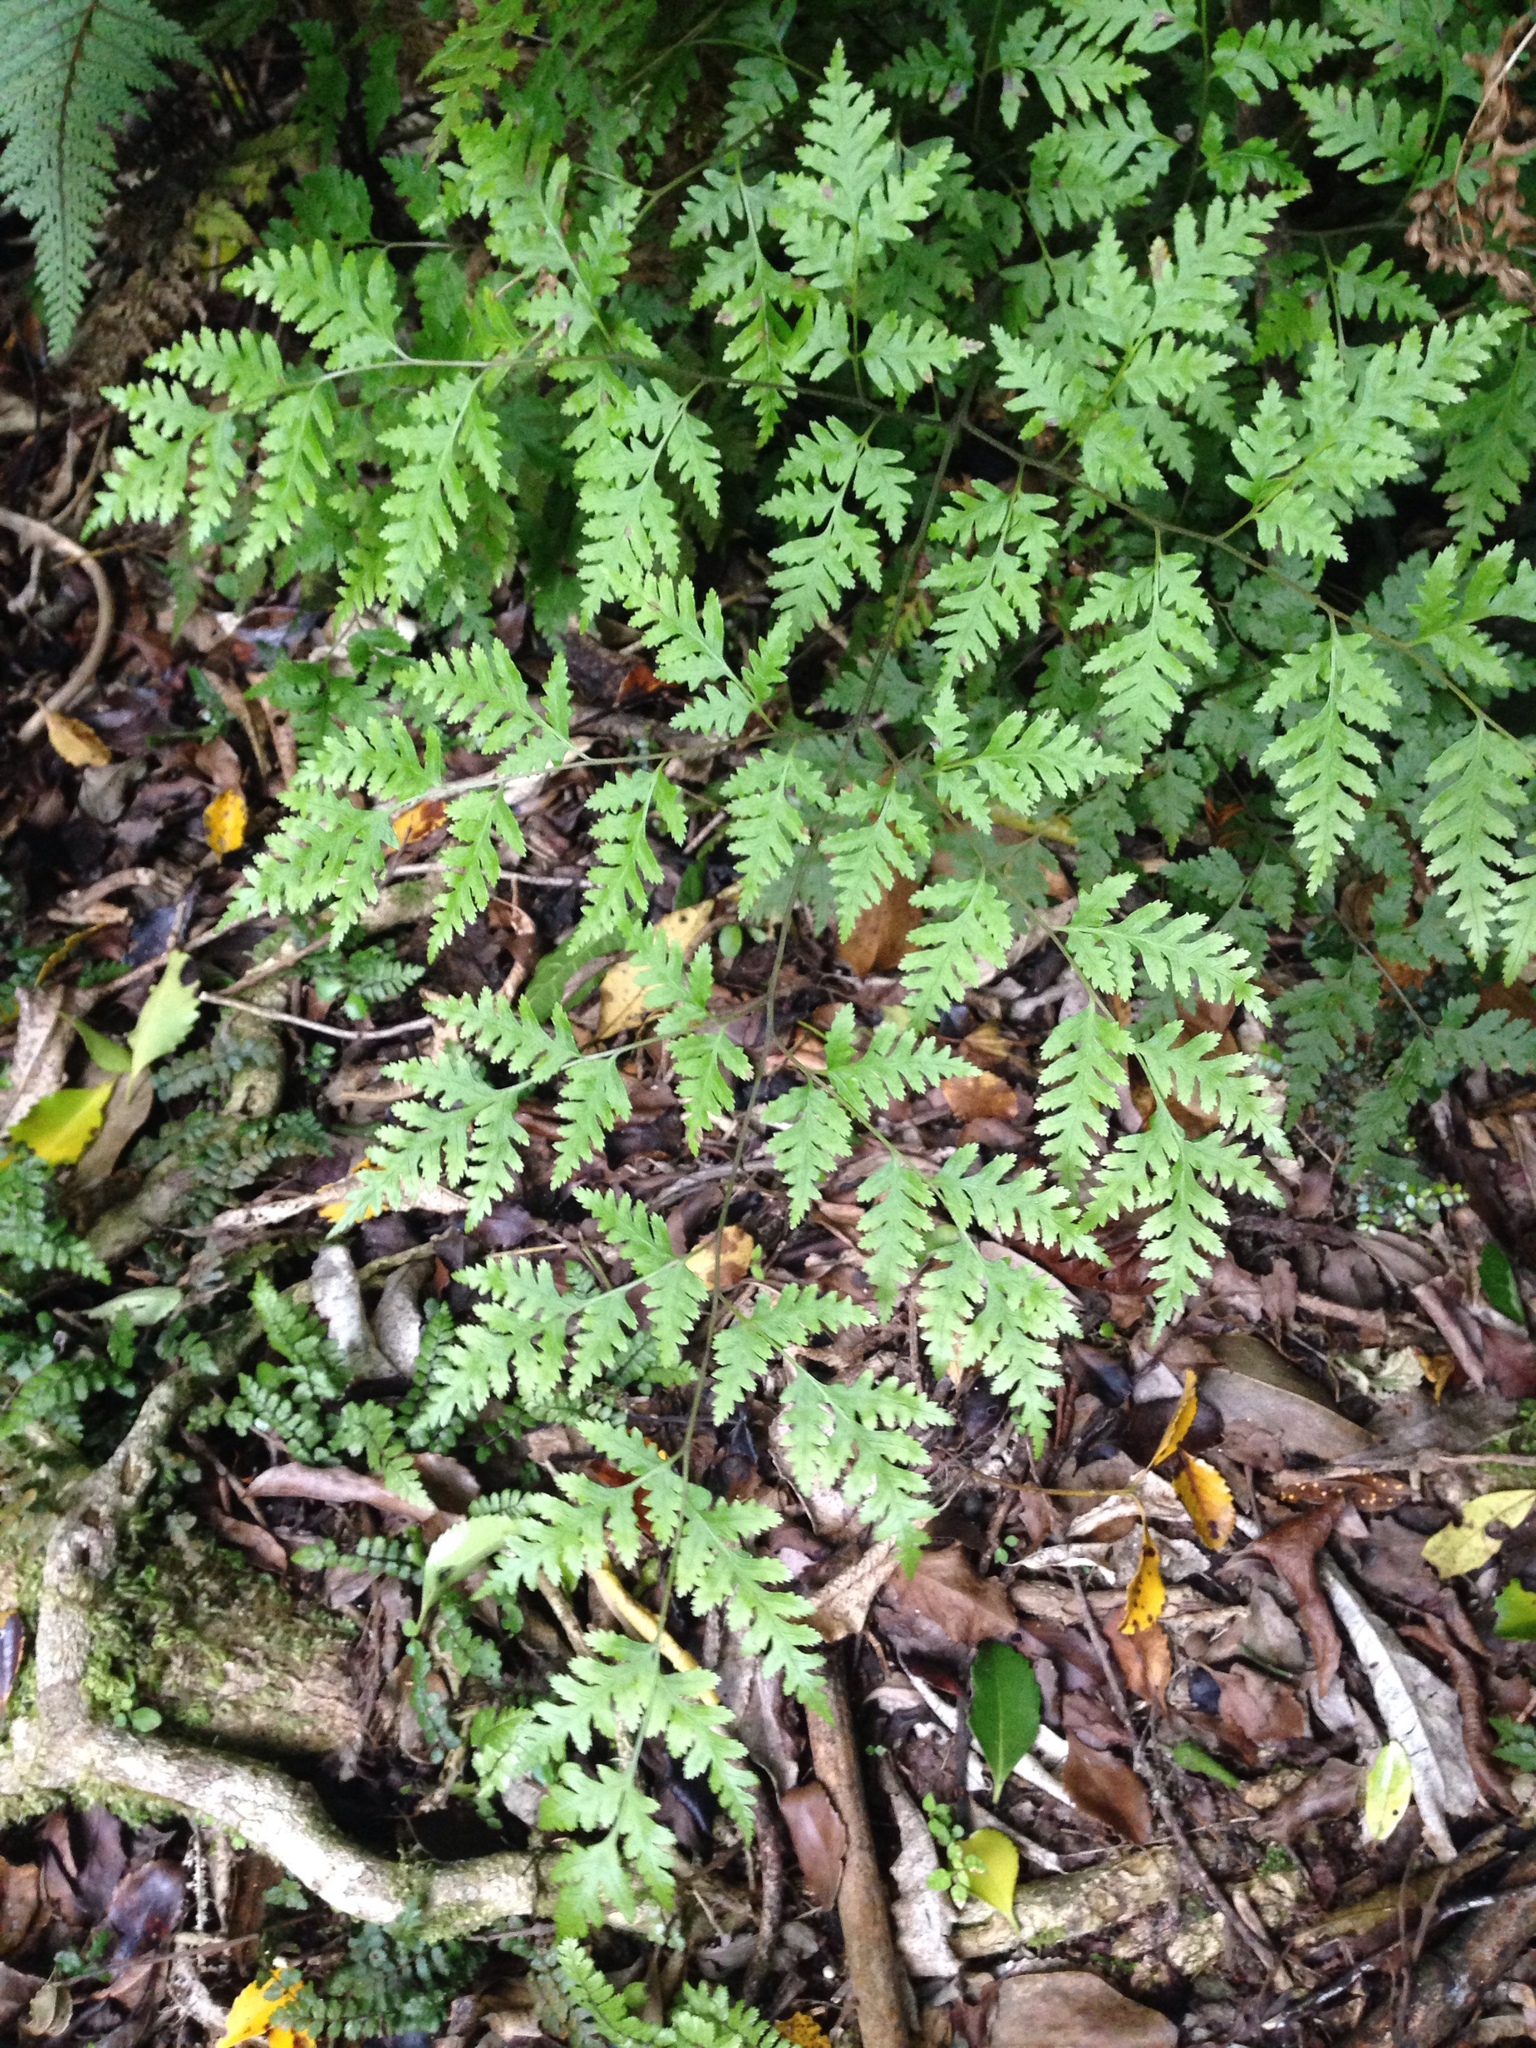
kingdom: Plantae
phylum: Tracheophyta
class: Polypodiopsida
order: Polypodiales
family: Pteridaceae
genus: Pteris
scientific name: Pteris macilenta
